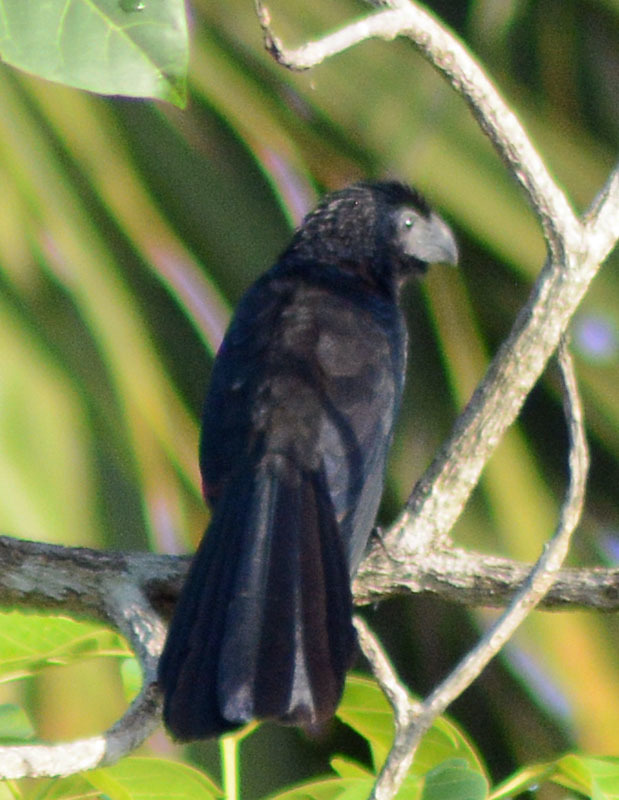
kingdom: Animalia
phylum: Chordata
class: Aves
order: Cuculiformes
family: Cuculidae
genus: Crotophaga
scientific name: Crotophaga sulcirostris
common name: Groove-billed ani
